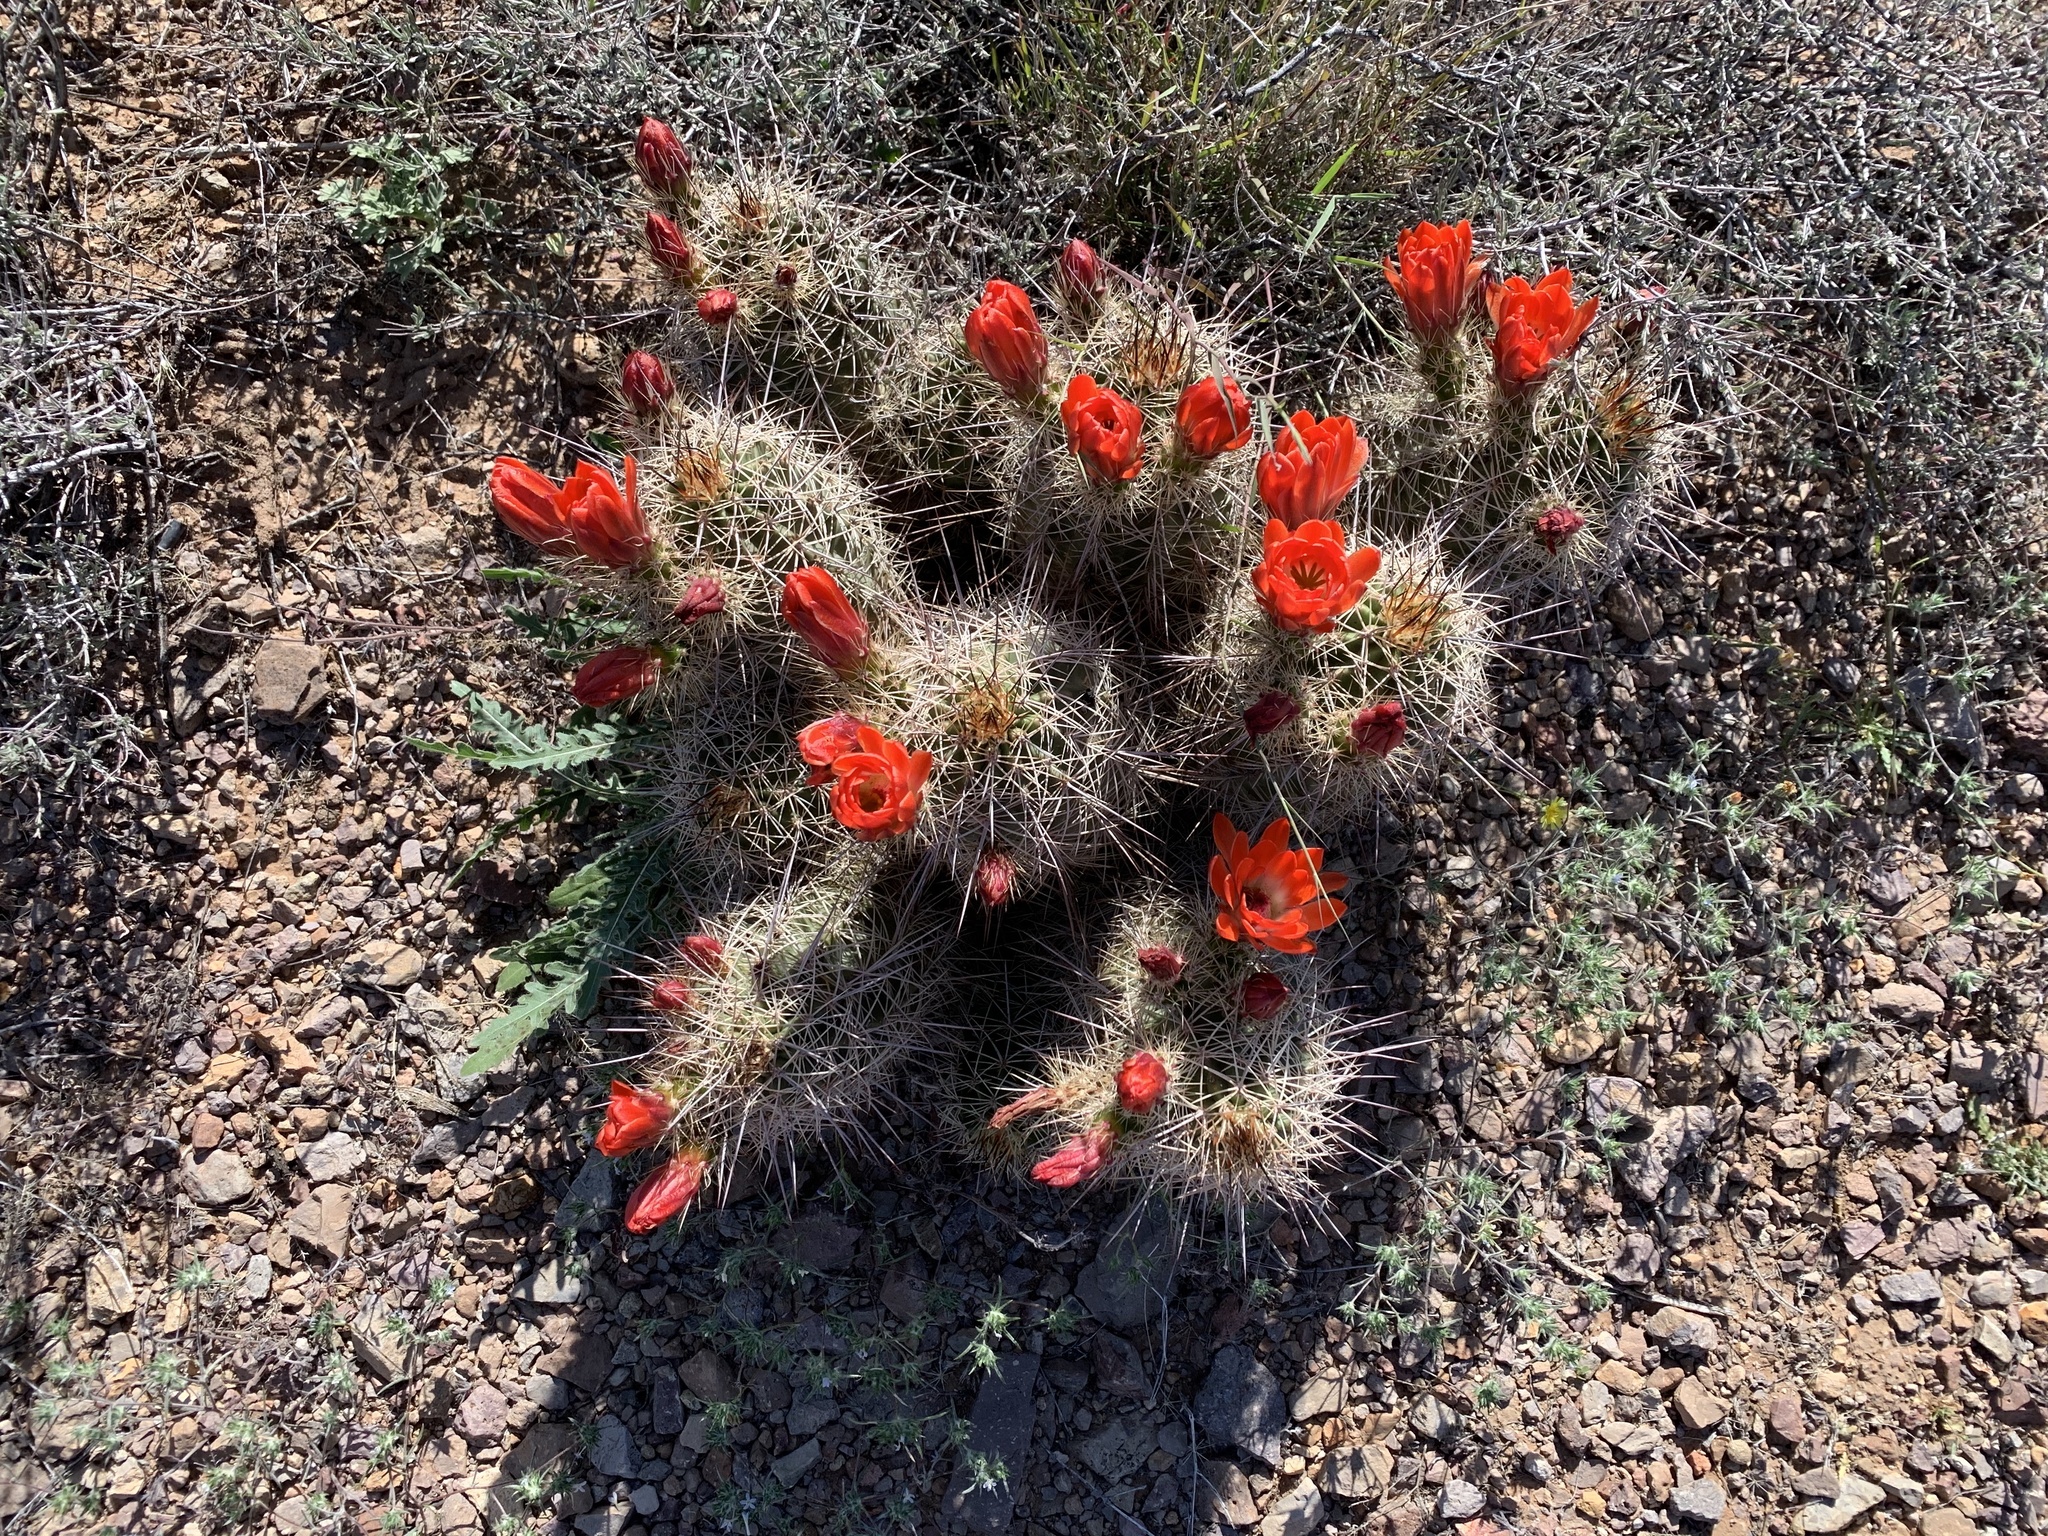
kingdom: Plantae
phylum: Tracheophyta
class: Magnoliopsida
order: Caryophyllales
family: Cactaceae
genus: Echinocereus
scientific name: Echinocereus coccineus
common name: Scarlet hedgehog cactus
